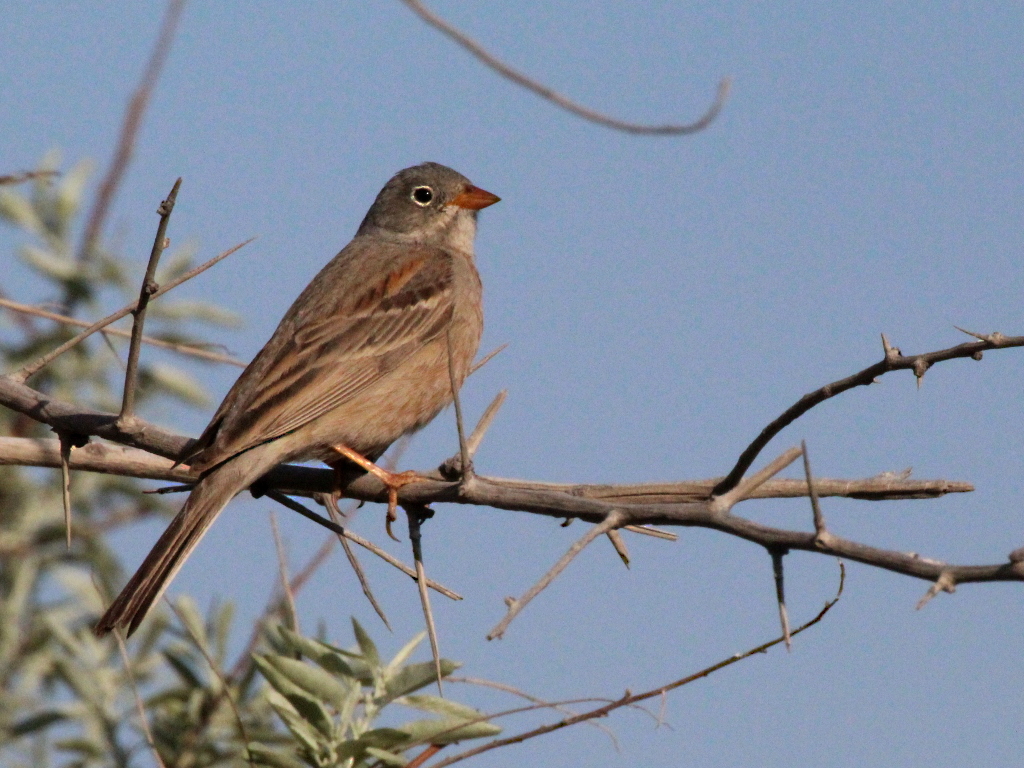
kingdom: Animalia
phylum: Chordata
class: Aves
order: Passeriformes
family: Emberizidae
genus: Emberiza
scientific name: Emberiza buchanani
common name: Grey-necked bunting
